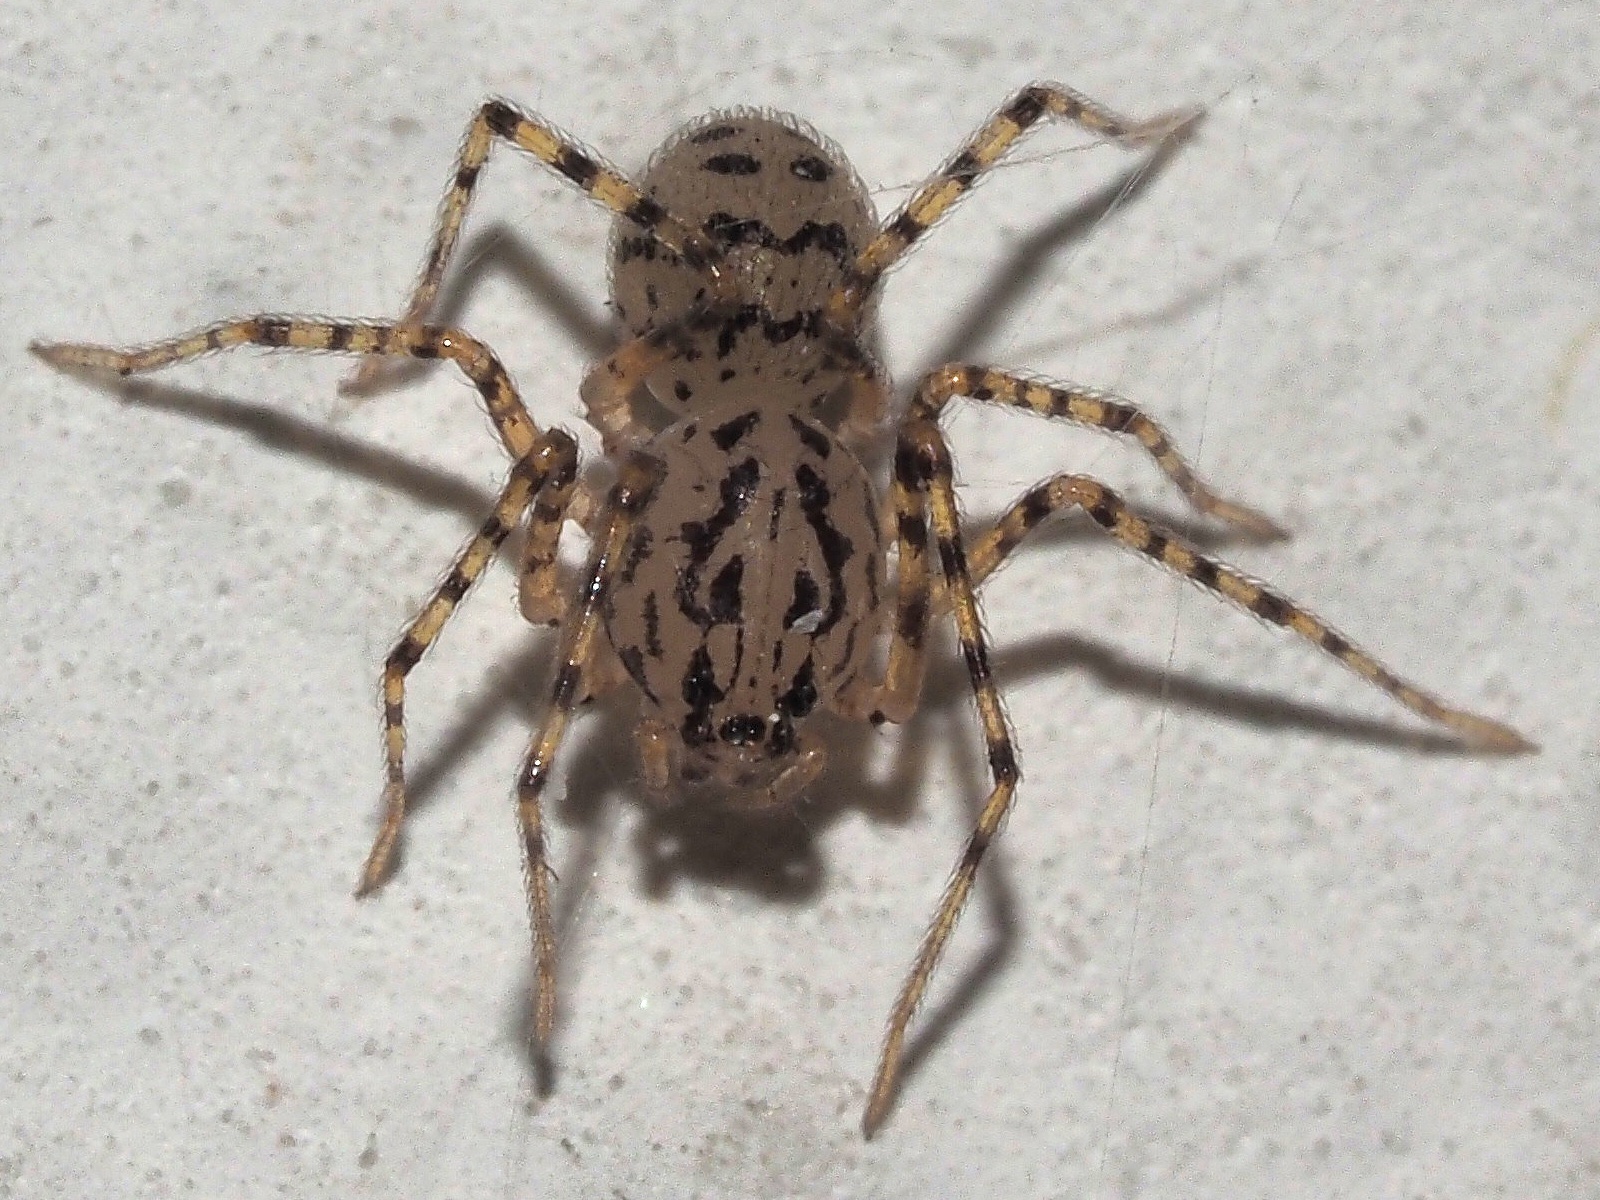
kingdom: Animalia
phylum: Arthropoda
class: Arachnida
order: Araneae
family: Scytodidae
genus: Scytodes
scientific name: Scytodes thoracica
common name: Spitting spider
